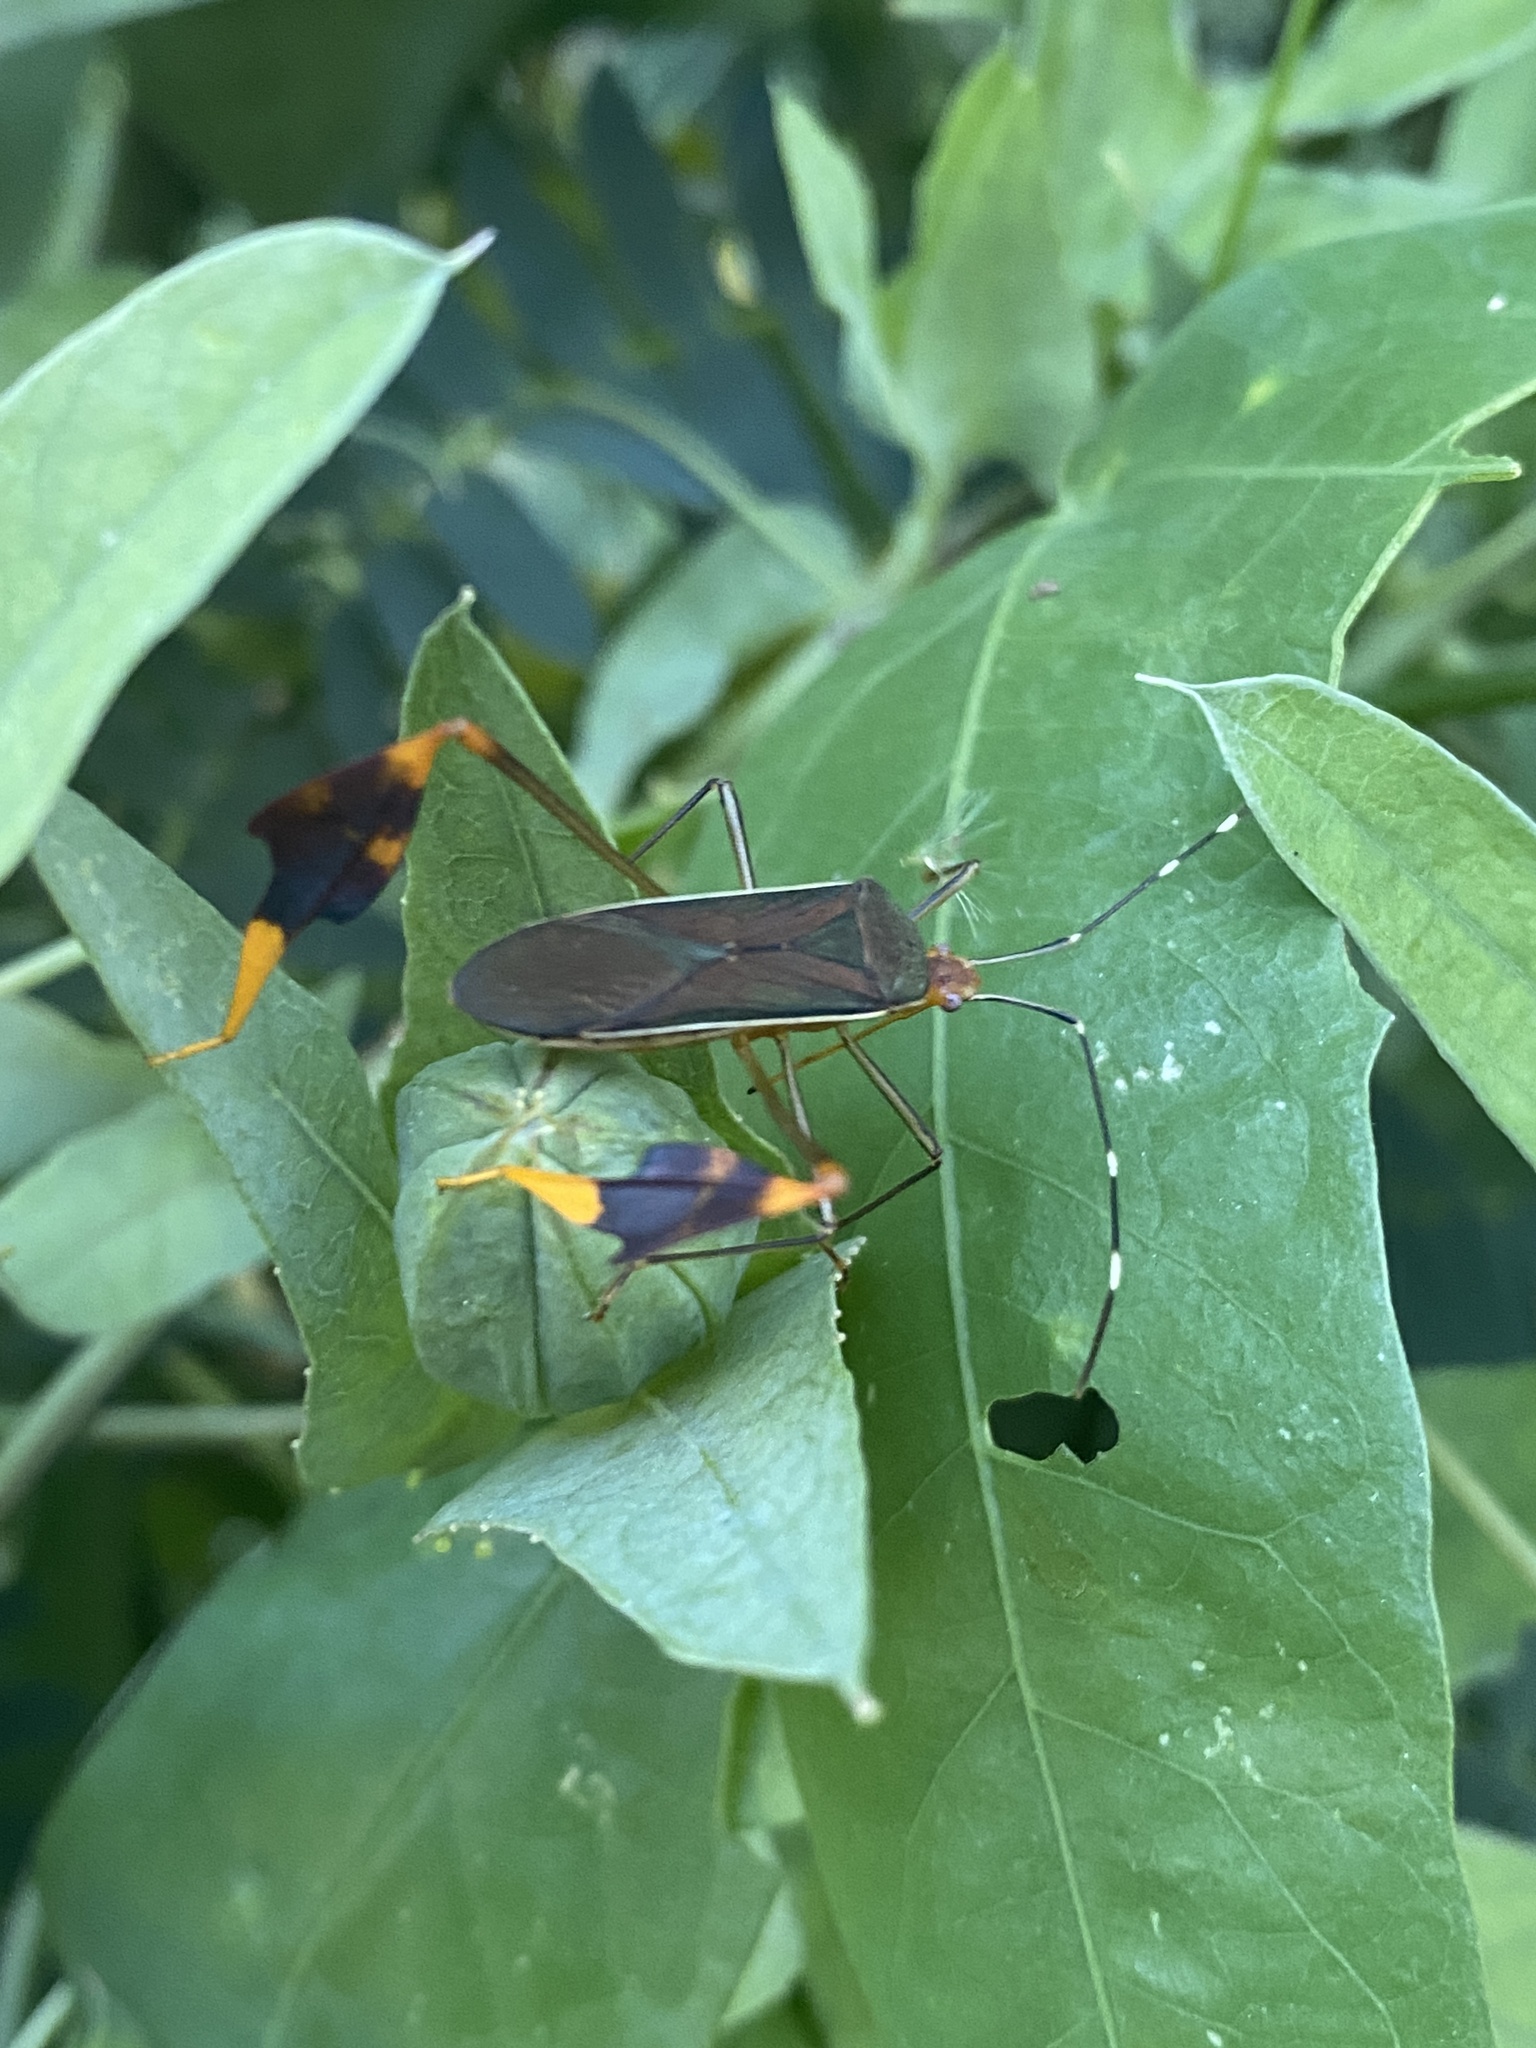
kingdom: Animalia
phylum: Arthropoda
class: Insecta
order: Hemiptera
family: Coreidae
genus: Anisoscelis
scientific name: Anisoscelis marginellus
